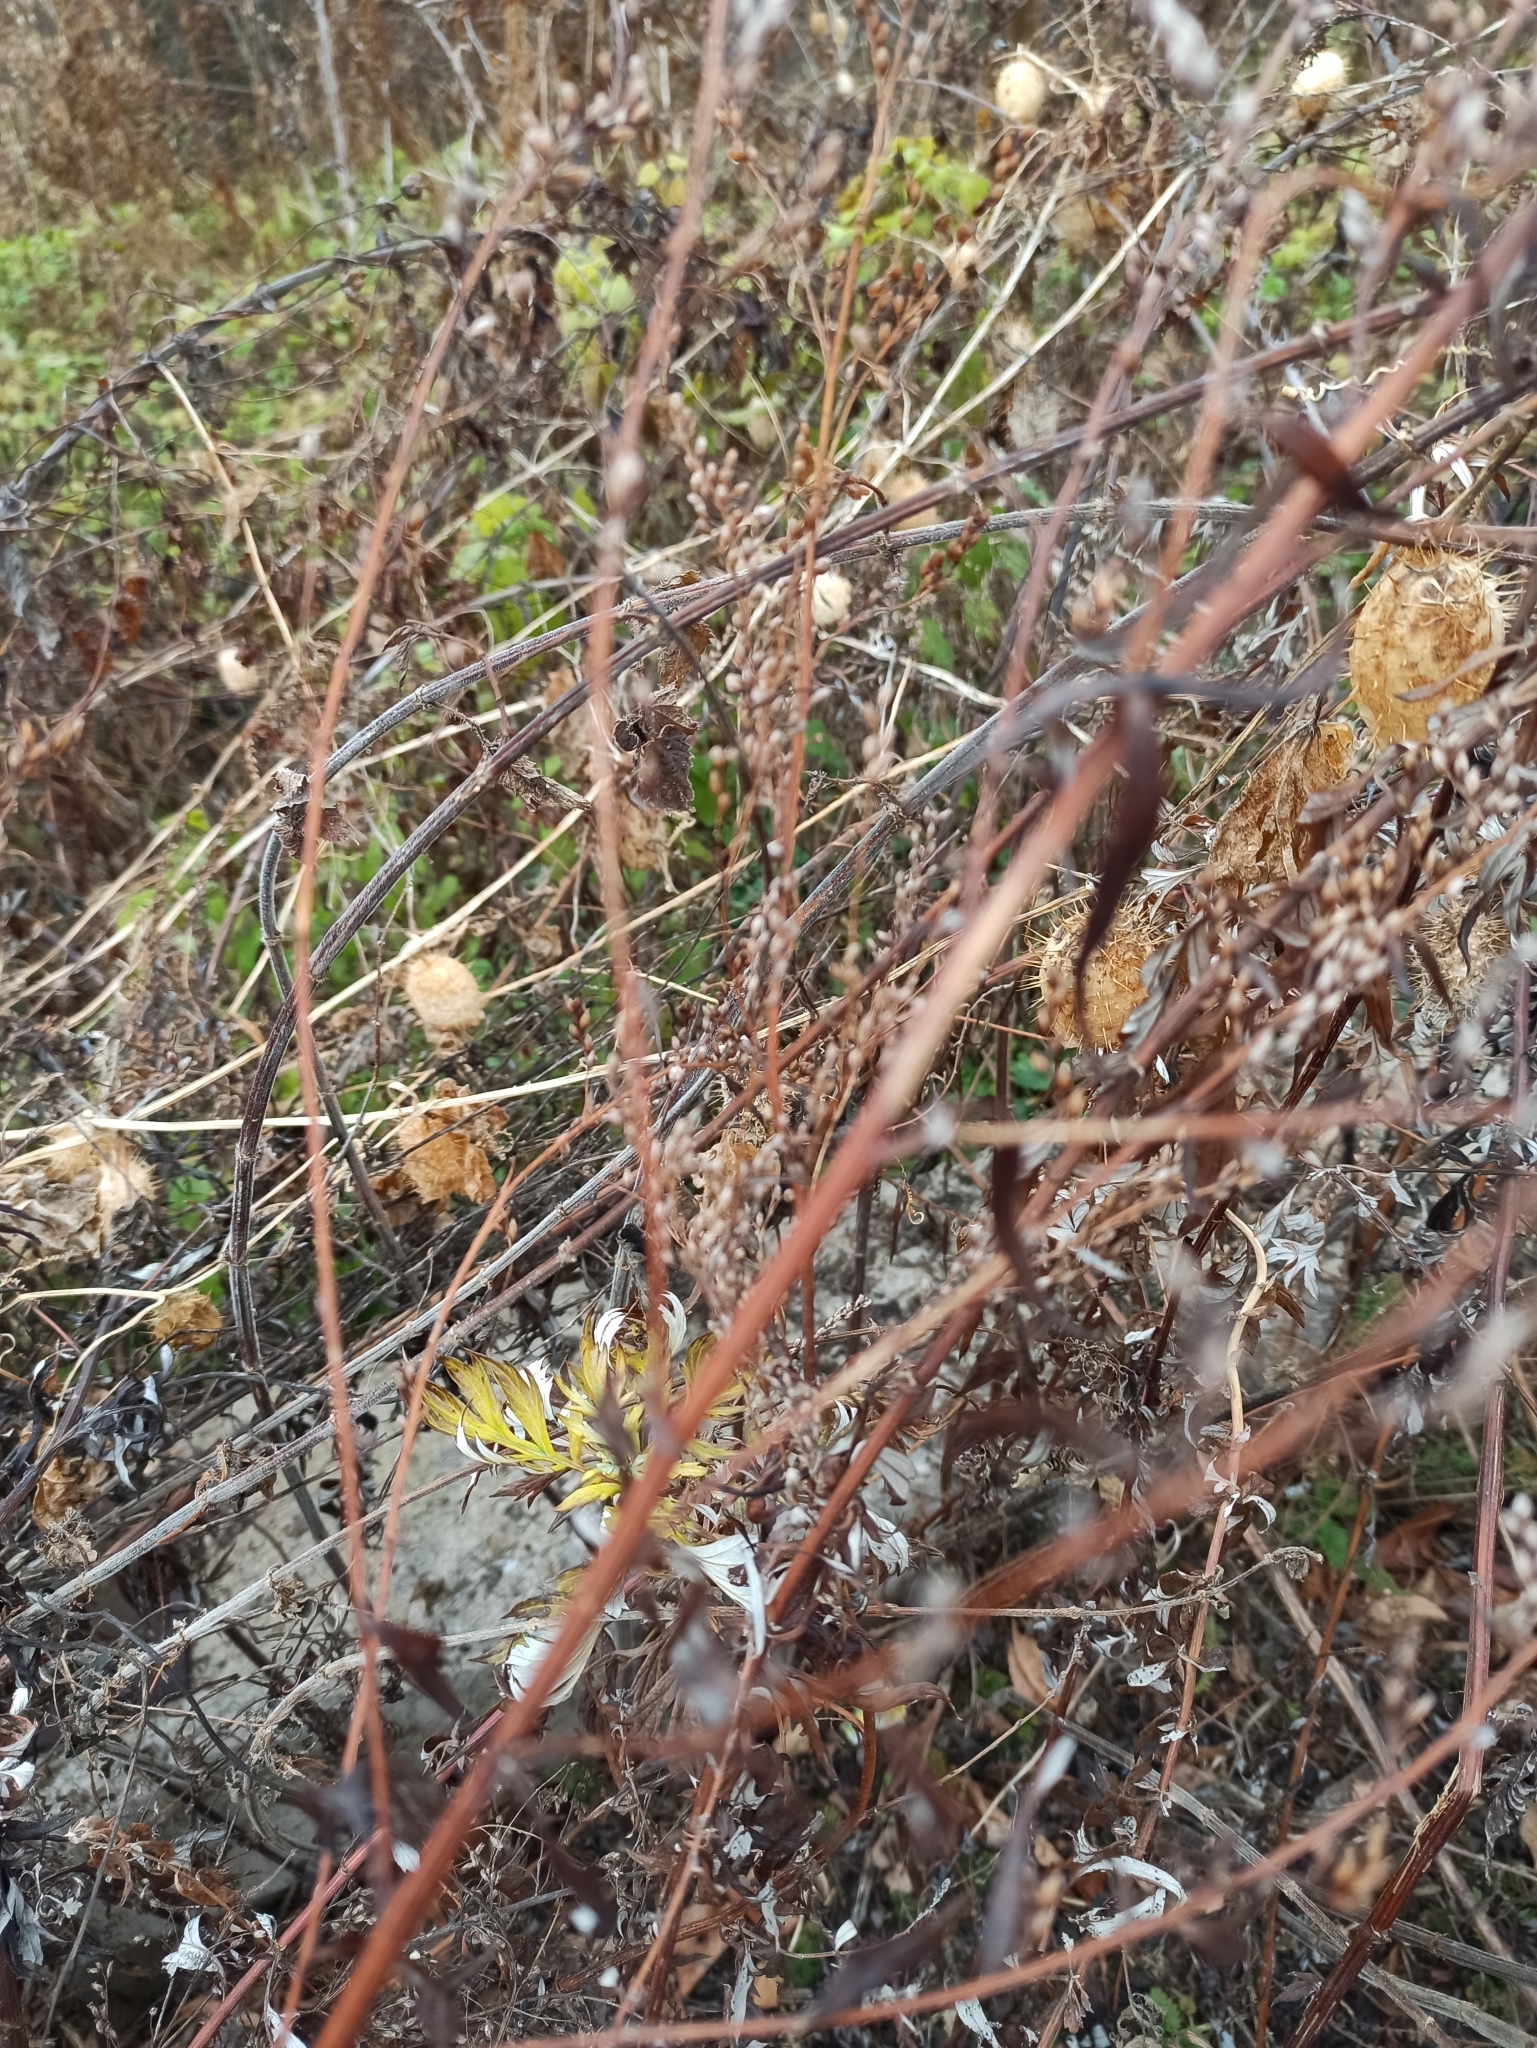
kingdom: Plantae
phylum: Tracheophyta
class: Magnoliopsida
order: Asterales
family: Asteraceae
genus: Artemisia
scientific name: Artemisia vulgaris
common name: Mugwort
